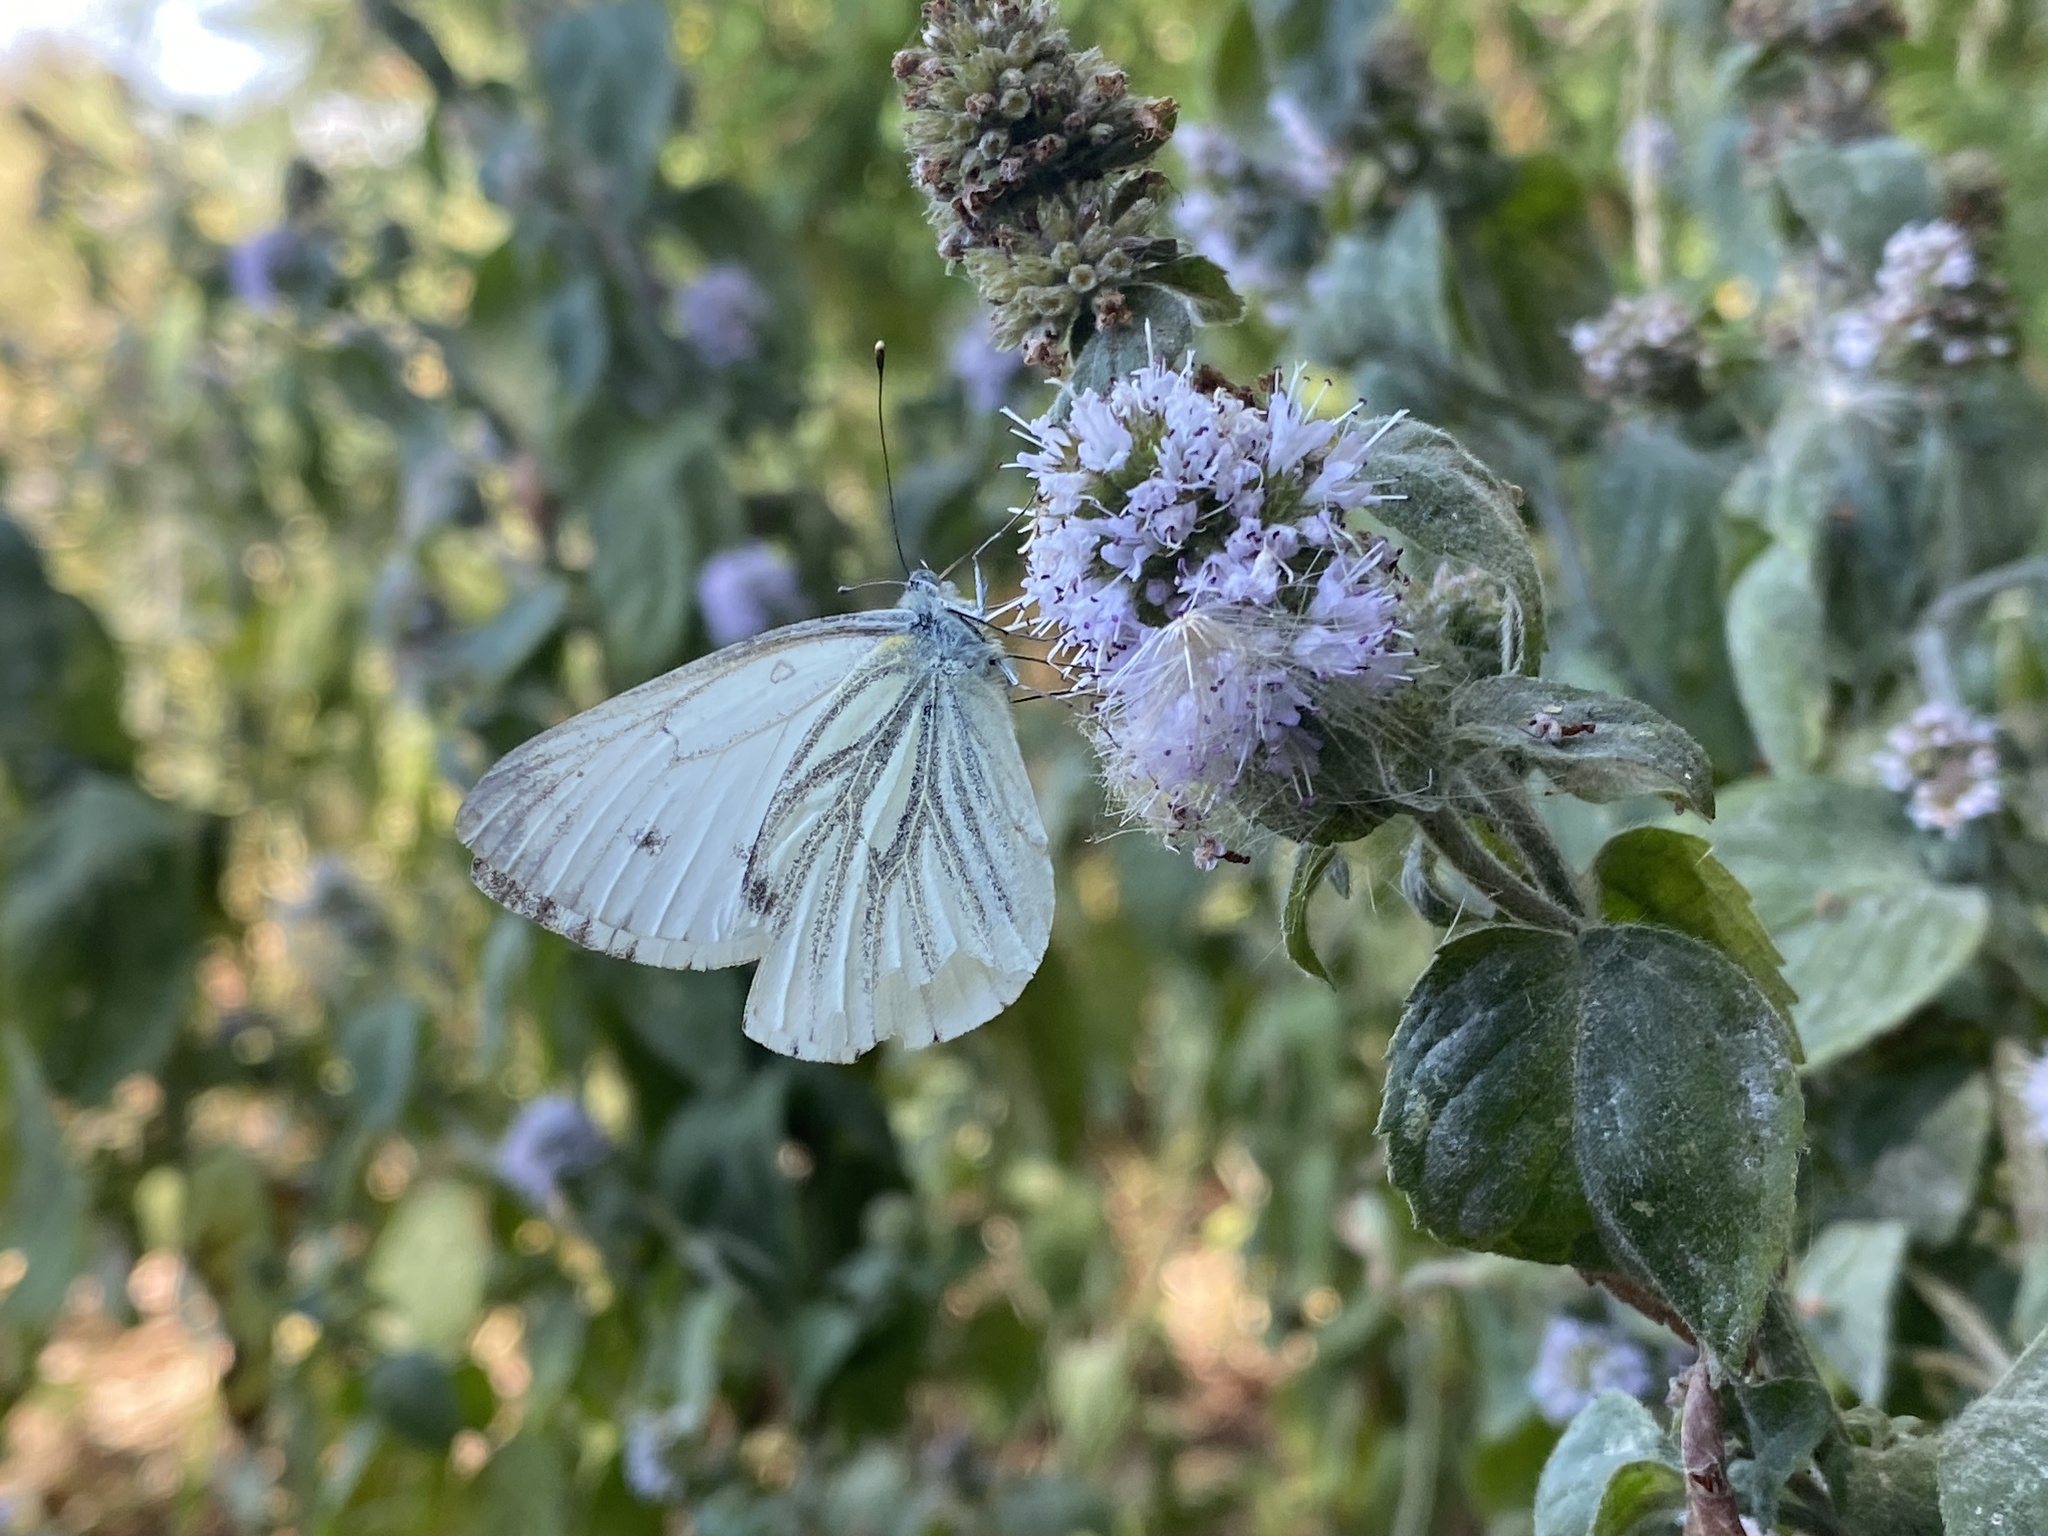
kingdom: Animalia
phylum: Arthropoda
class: Insecta
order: Lepidoptera
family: Pieridae
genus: Pieris
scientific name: Pieris napi
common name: Green-veined white
